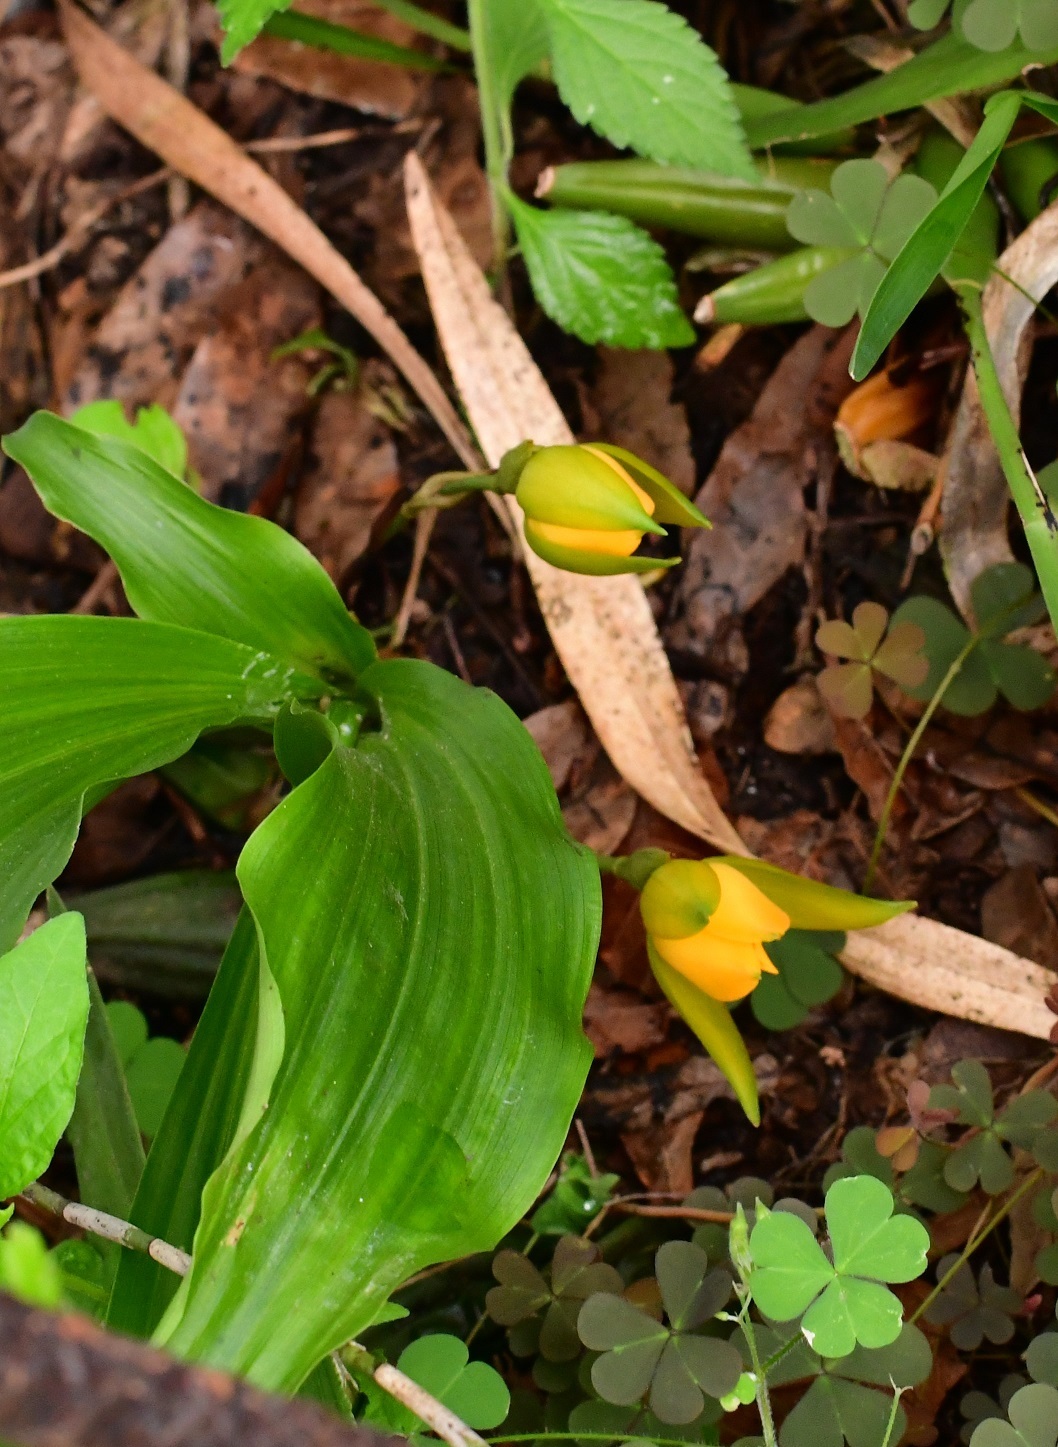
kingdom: Plantae
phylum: Tracheophyta
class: Liliopsida
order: Asparagales
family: Orchidaceae
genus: Lycaste
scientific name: Lycaste cruenta
